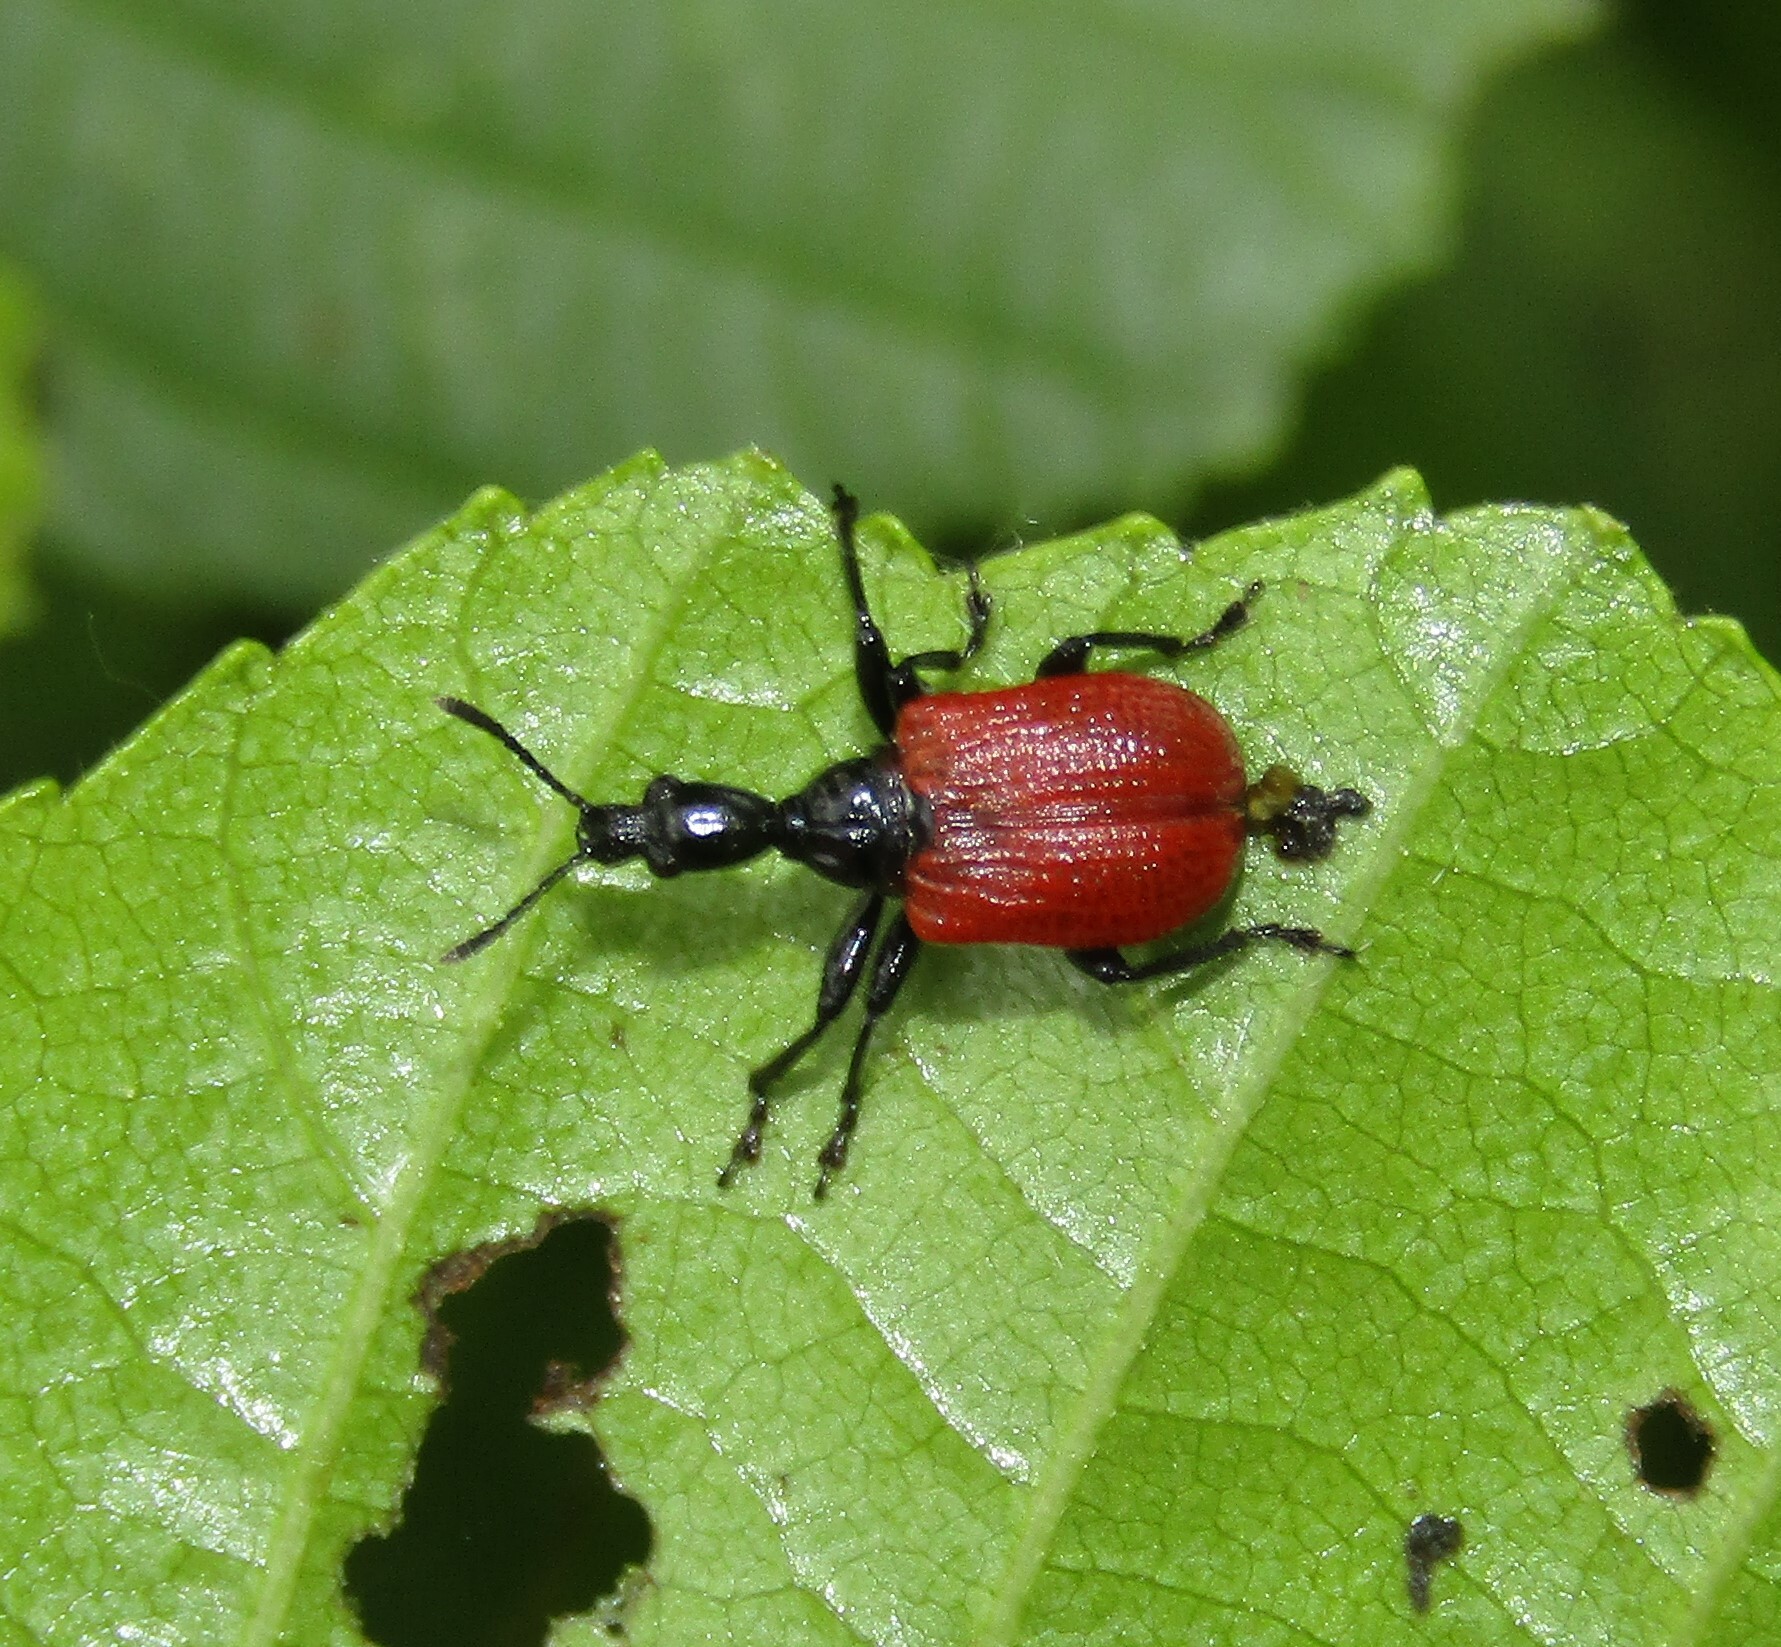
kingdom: Animalia
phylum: Arthropoda
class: Insecta
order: Coleoptera
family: Attelabidae
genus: Apoderus
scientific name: Apoderus coryli
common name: Hazel leaf roller
